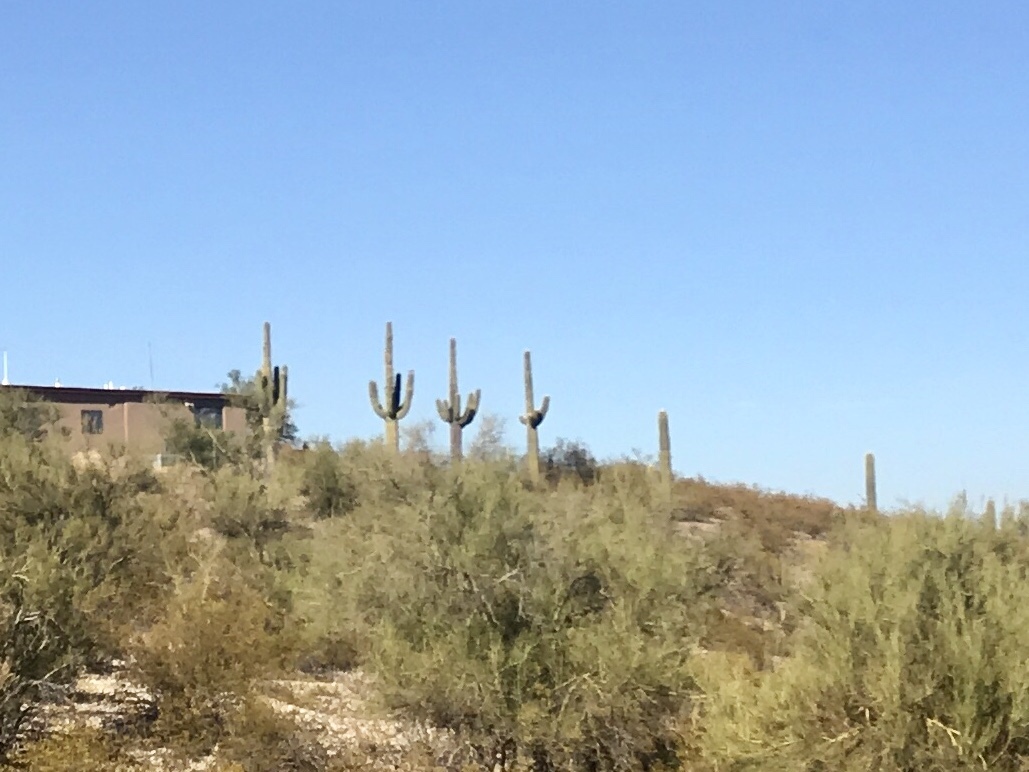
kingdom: Plantae
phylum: Tracheophyta
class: Magnoliopsida
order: Caryophyllales
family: Cactaceae
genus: Carnegiea
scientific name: Carnegiea gigantea
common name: Saguaro
